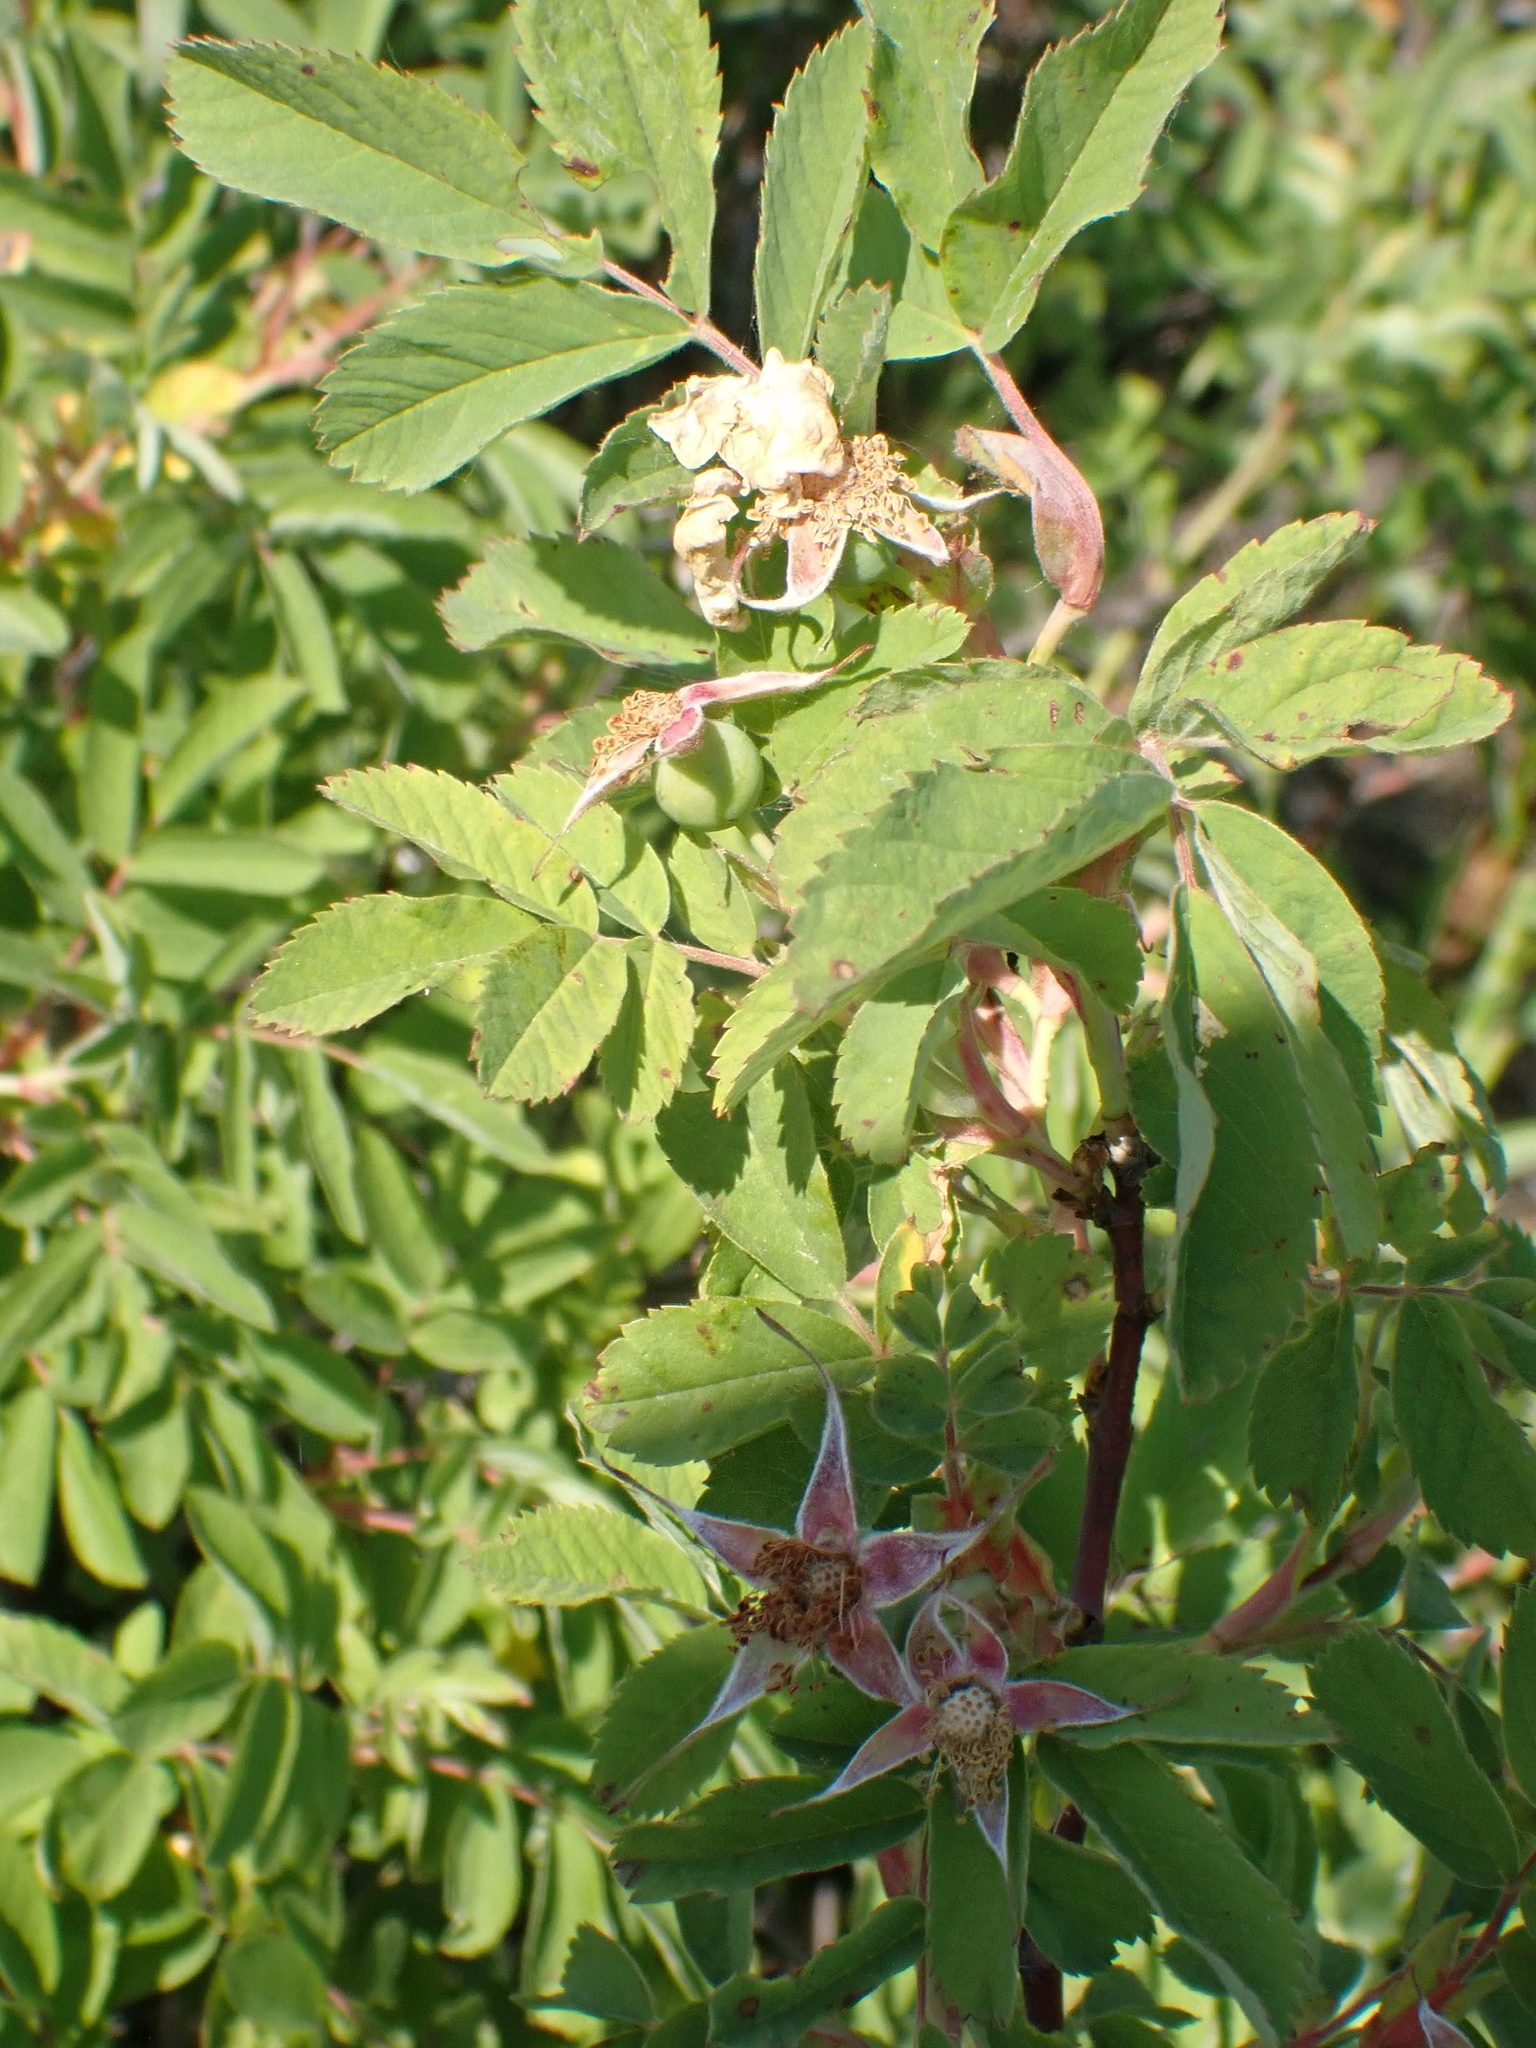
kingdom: Plantae
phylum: Tracheophyta
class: Magnoliopsida
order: Rosales
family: Rosaceae
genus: Rosa
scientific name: Rosa woodsii
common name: Woods's rose
